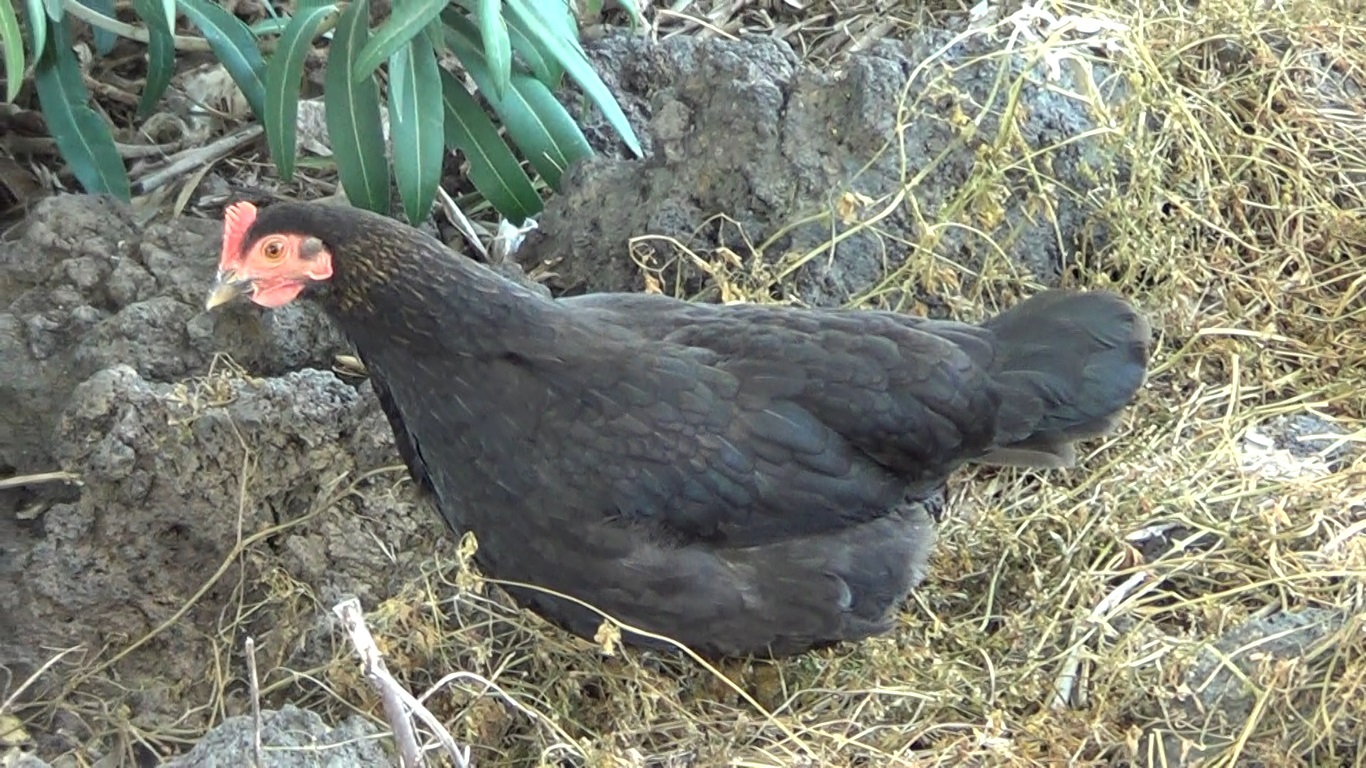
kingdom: Animalia
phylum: Chordata
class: Aves
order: Galliformes
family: Phasianidae
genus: Gallus
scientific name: Gallus gallus
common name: Red junglefowl
